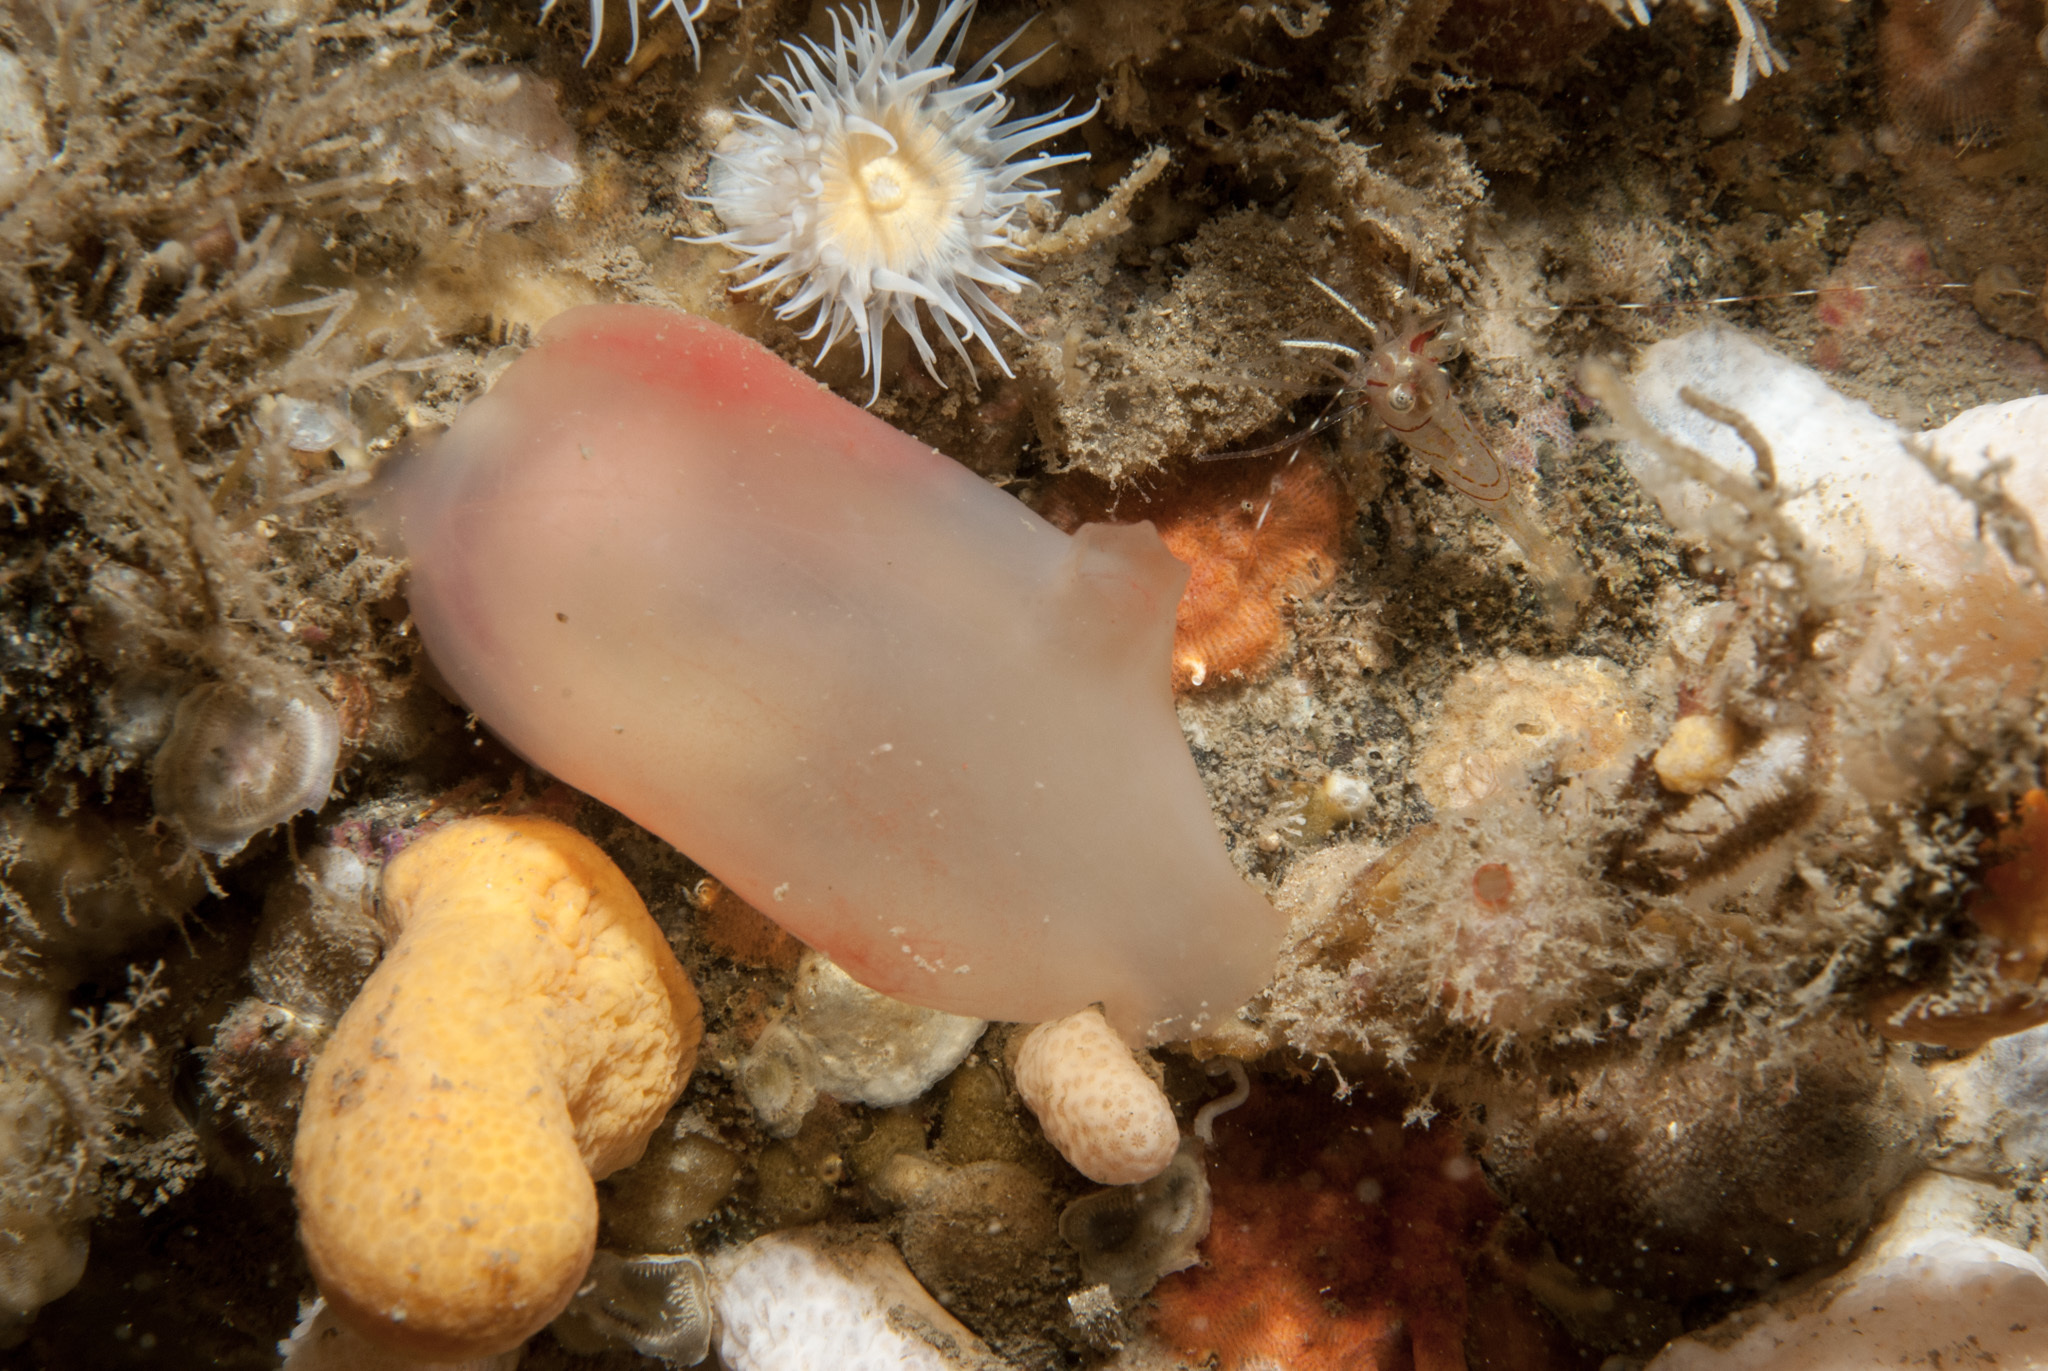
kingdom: Animalia
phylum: Chordata
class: Ascidiacea
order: Phlebobranchia
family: Ascidiidae
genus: Ascidia
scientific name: Ascidia virginea
